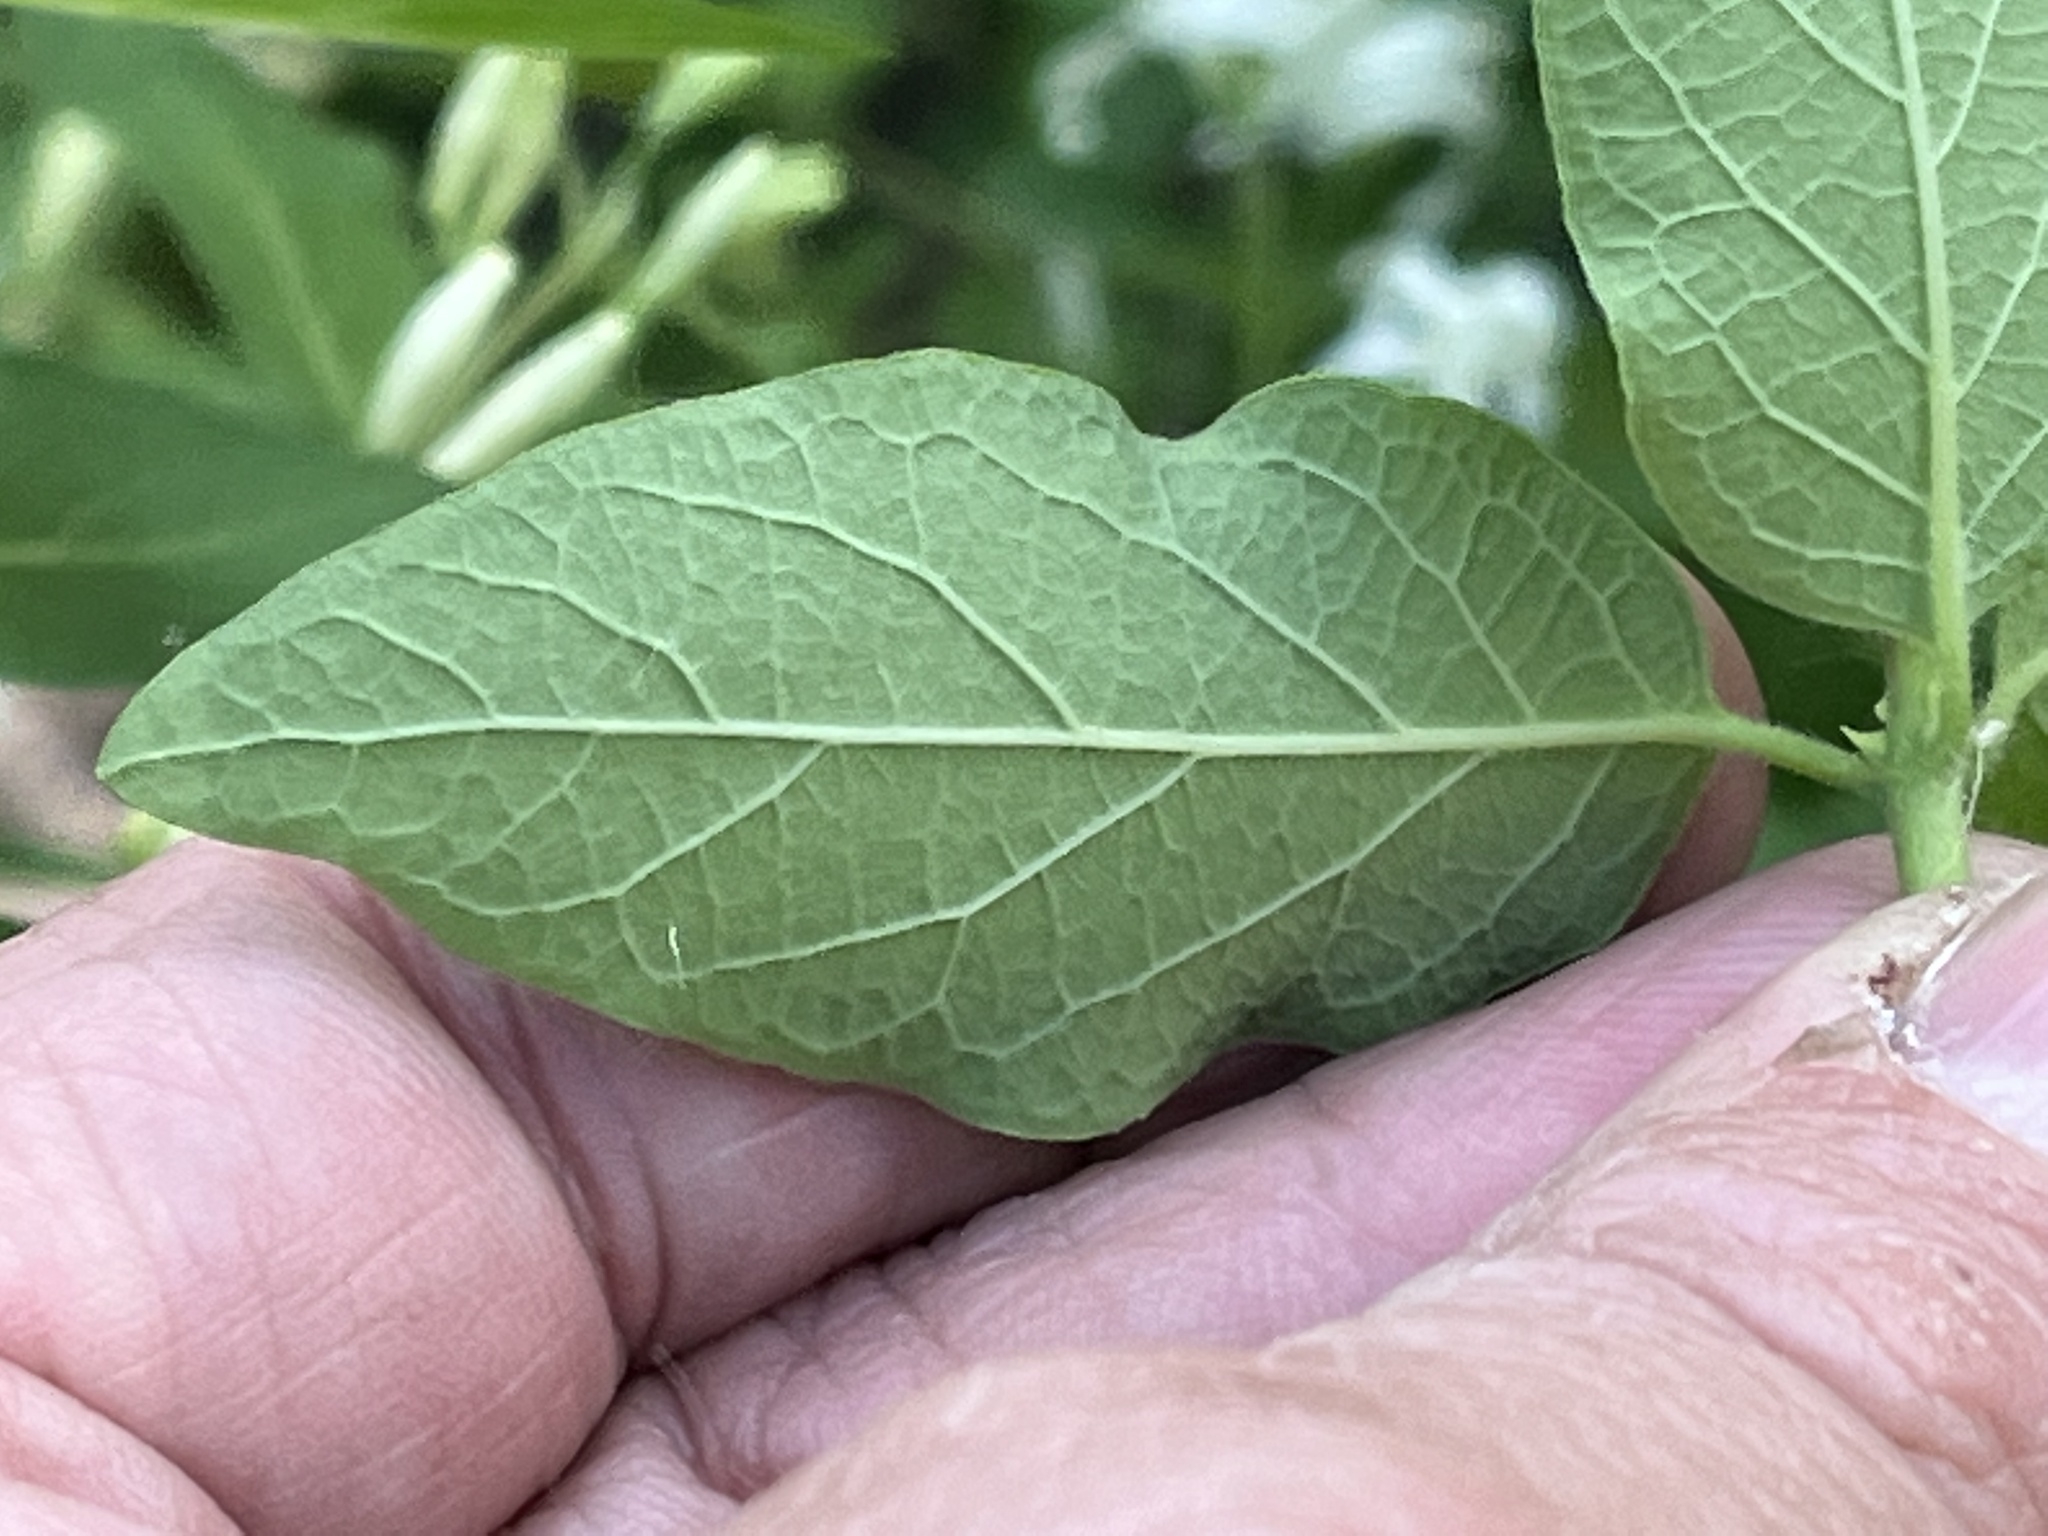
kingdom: Plantae
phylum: Tracheophyta
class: Magnoliopsida
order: Dipsacales
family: Caprifoliaceae
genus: Lonicera
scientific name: Lonicera morrowii
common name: Morrow's honeysuckle
